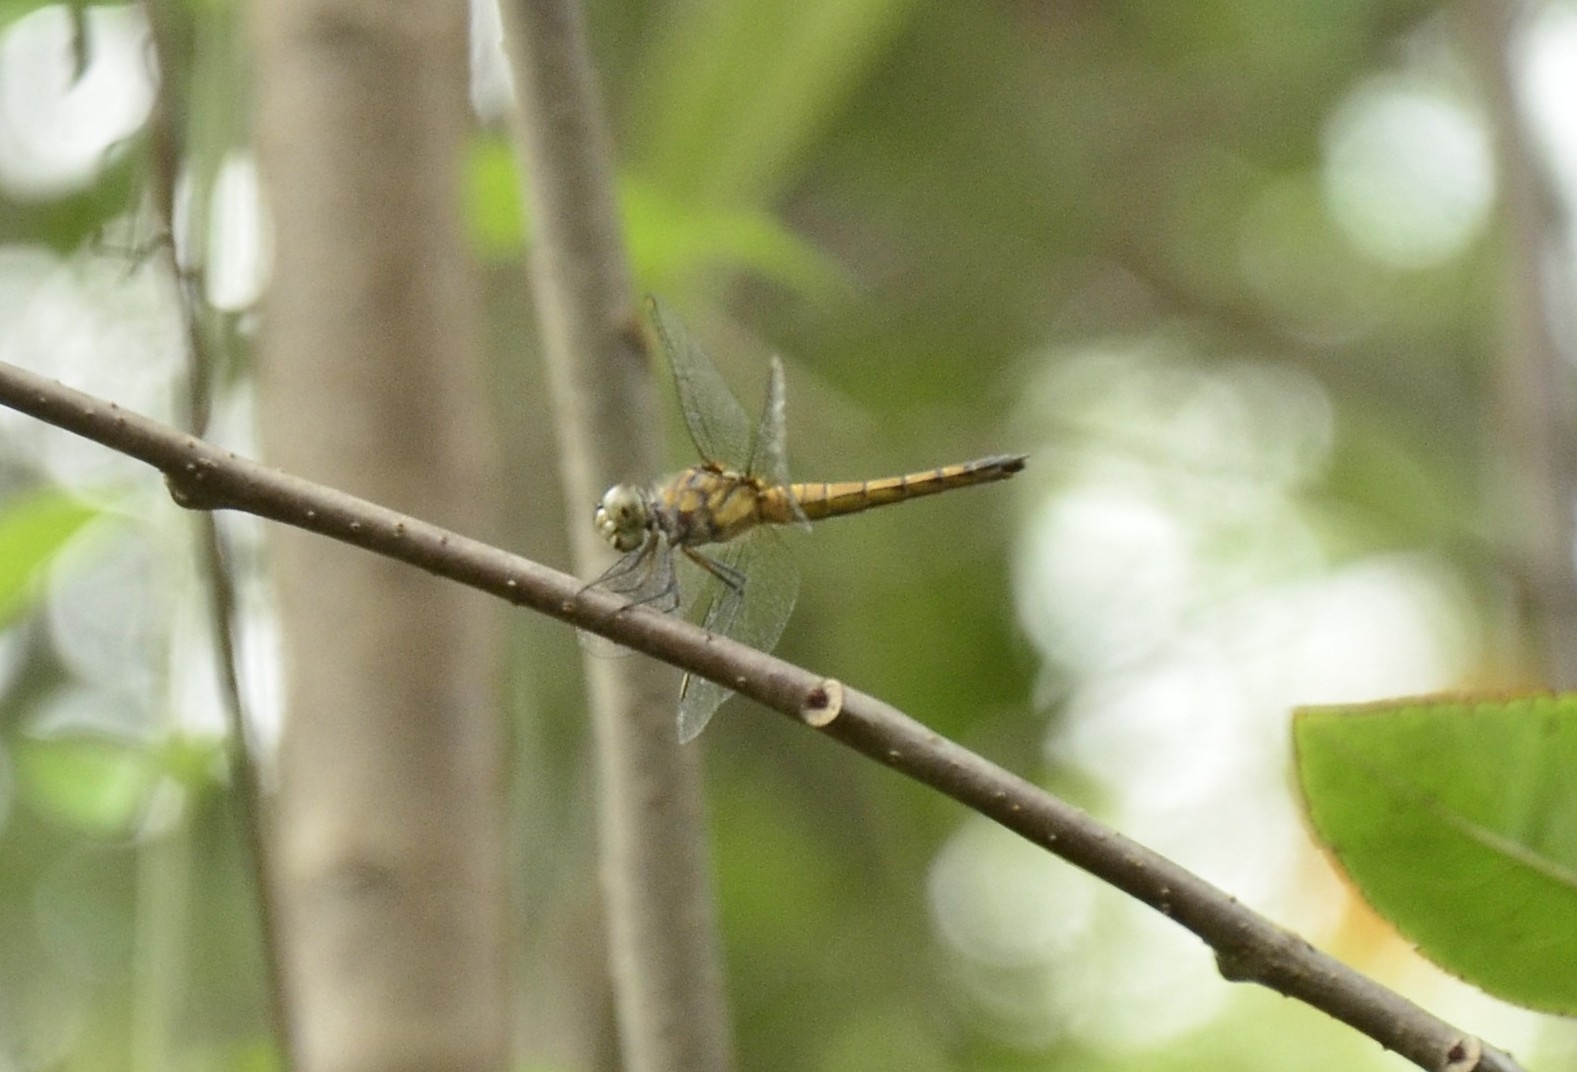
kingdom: Animalia
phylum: Arthropoda
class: Insecta
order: Odonata
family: Libellulidae
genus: Brachydiplax
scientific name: Brachydiplax chalybea
